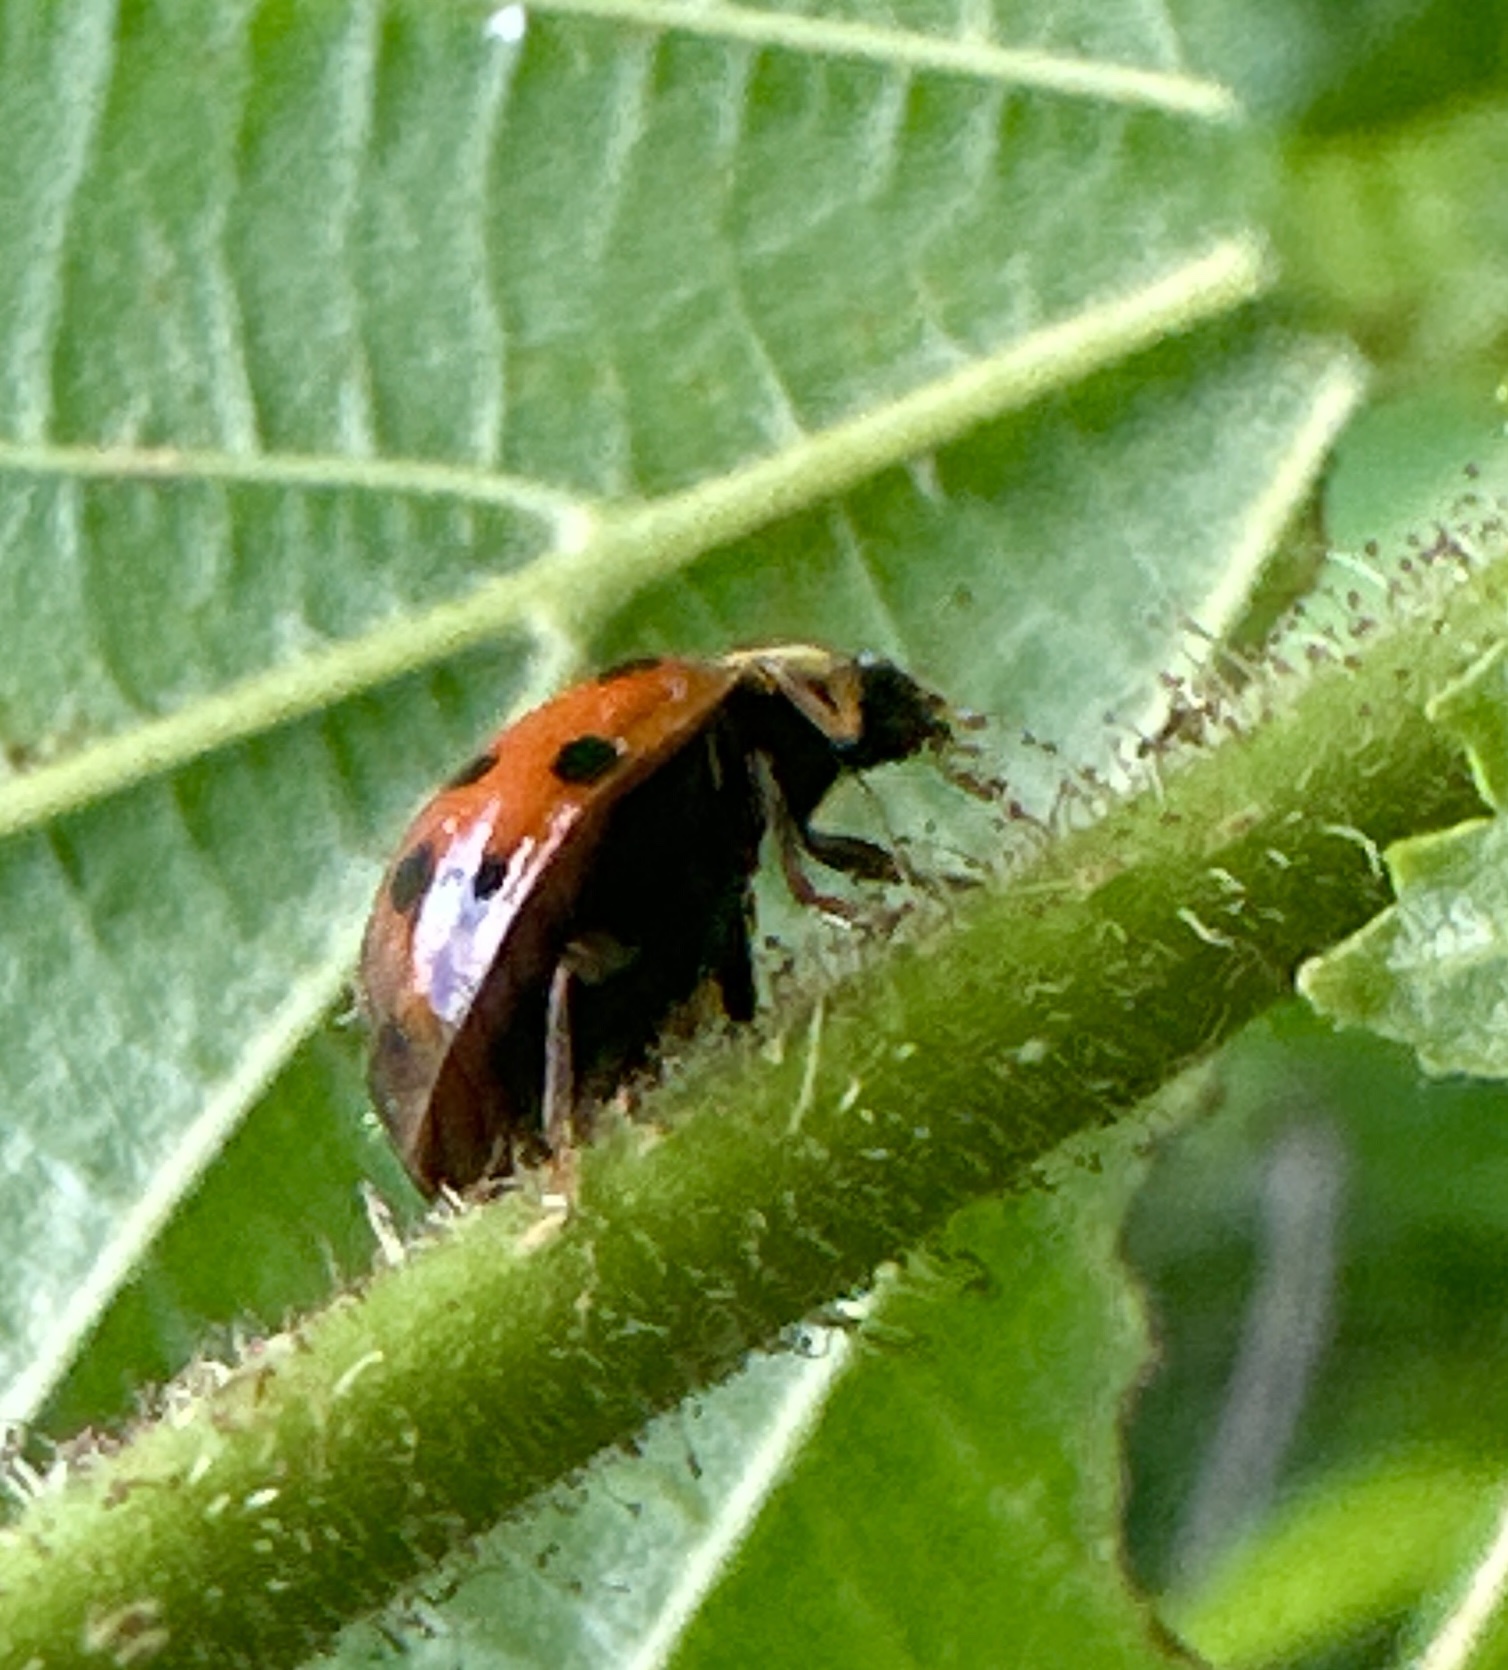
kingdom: Animalia
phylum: Arthropoda
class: Insecta
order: Coleoptera
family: Coccinellidae
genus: Harmonia
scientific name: Harmonia axyridis
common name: Harlequin ladybird
